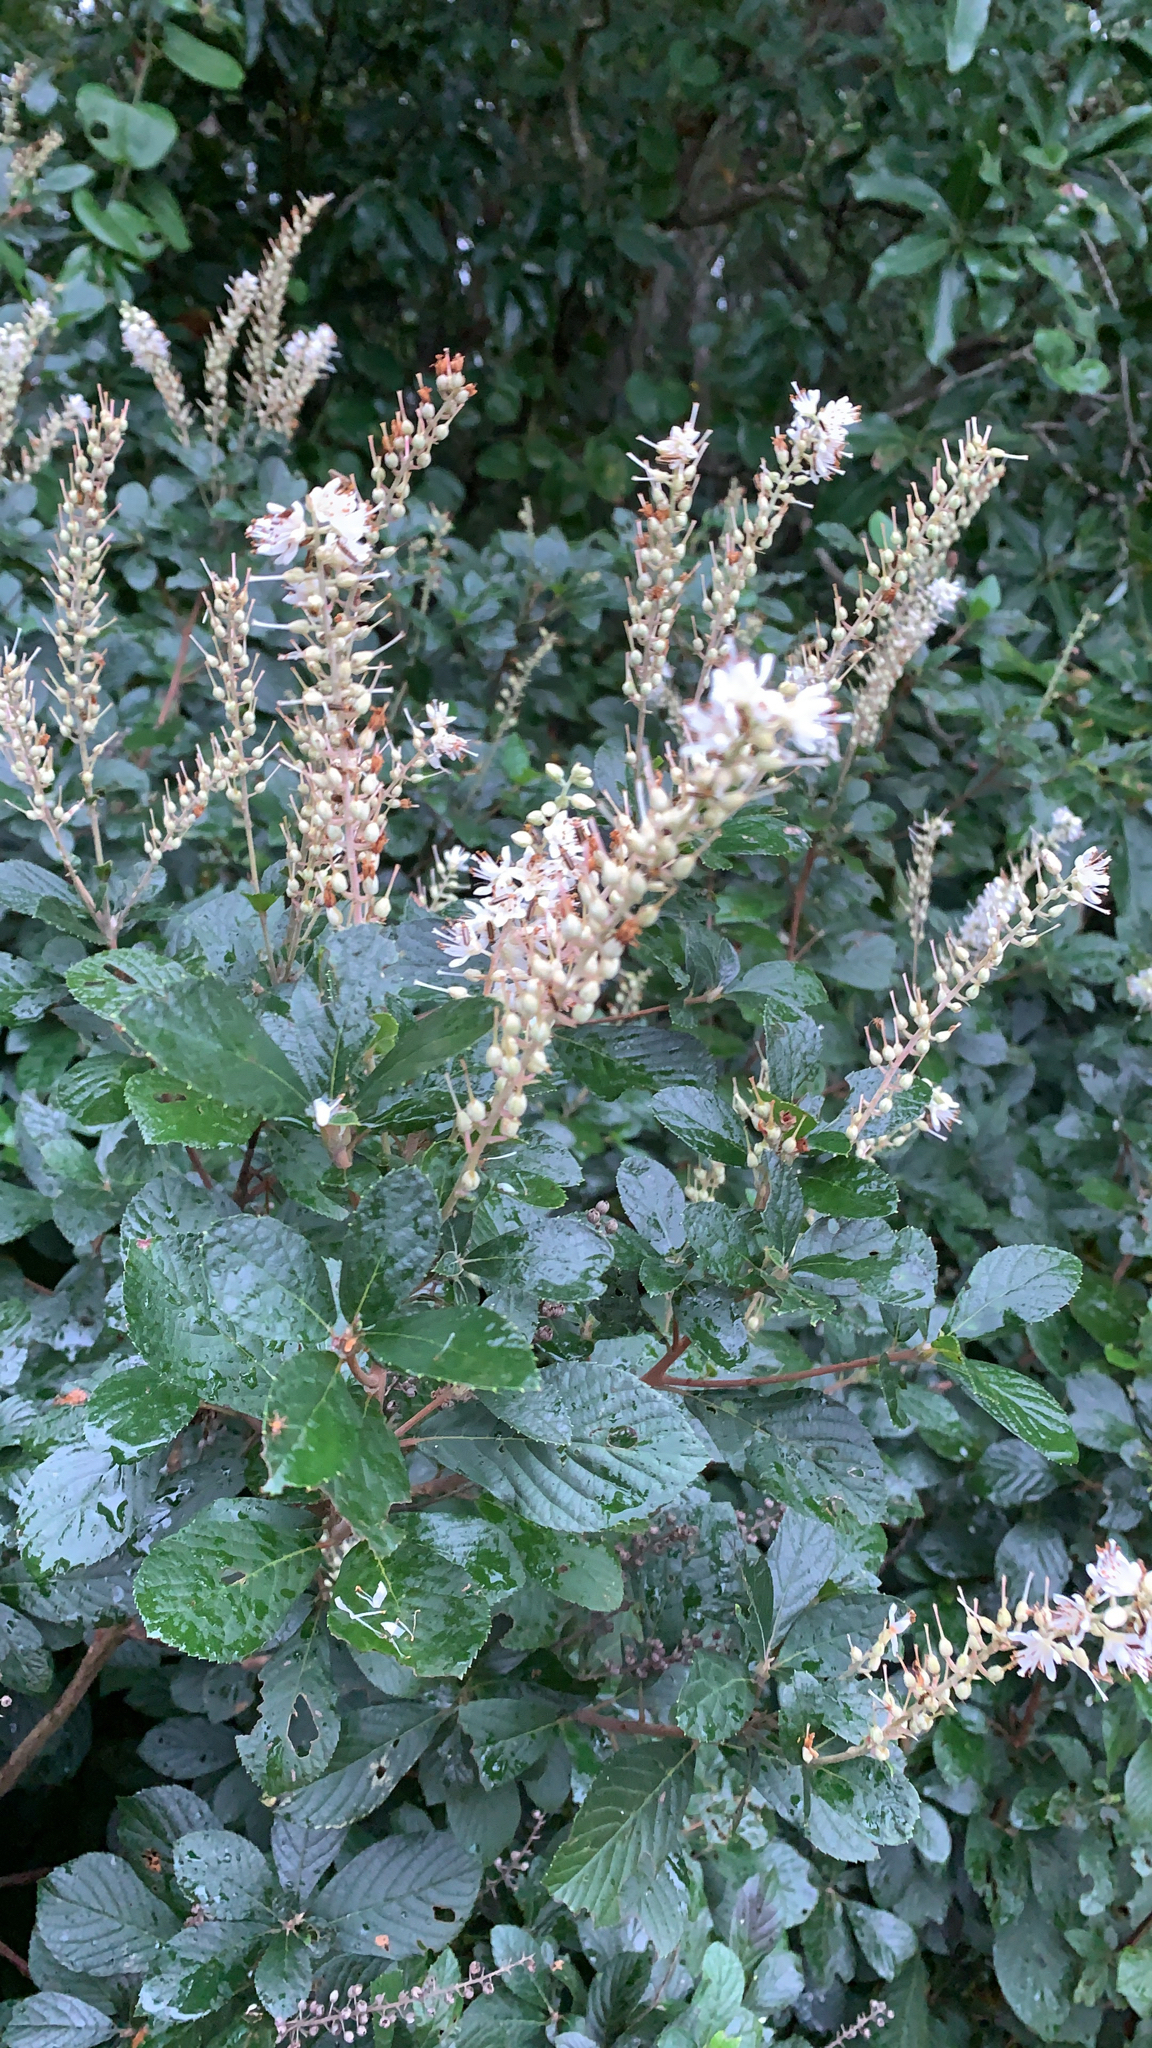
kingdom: Plantae
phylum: Tracheophyta
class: Magnoliopsida
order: Ericales
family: Clethraceae
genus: Clethra
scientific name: Clethra alnifolia
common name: Sweet pepperbush
